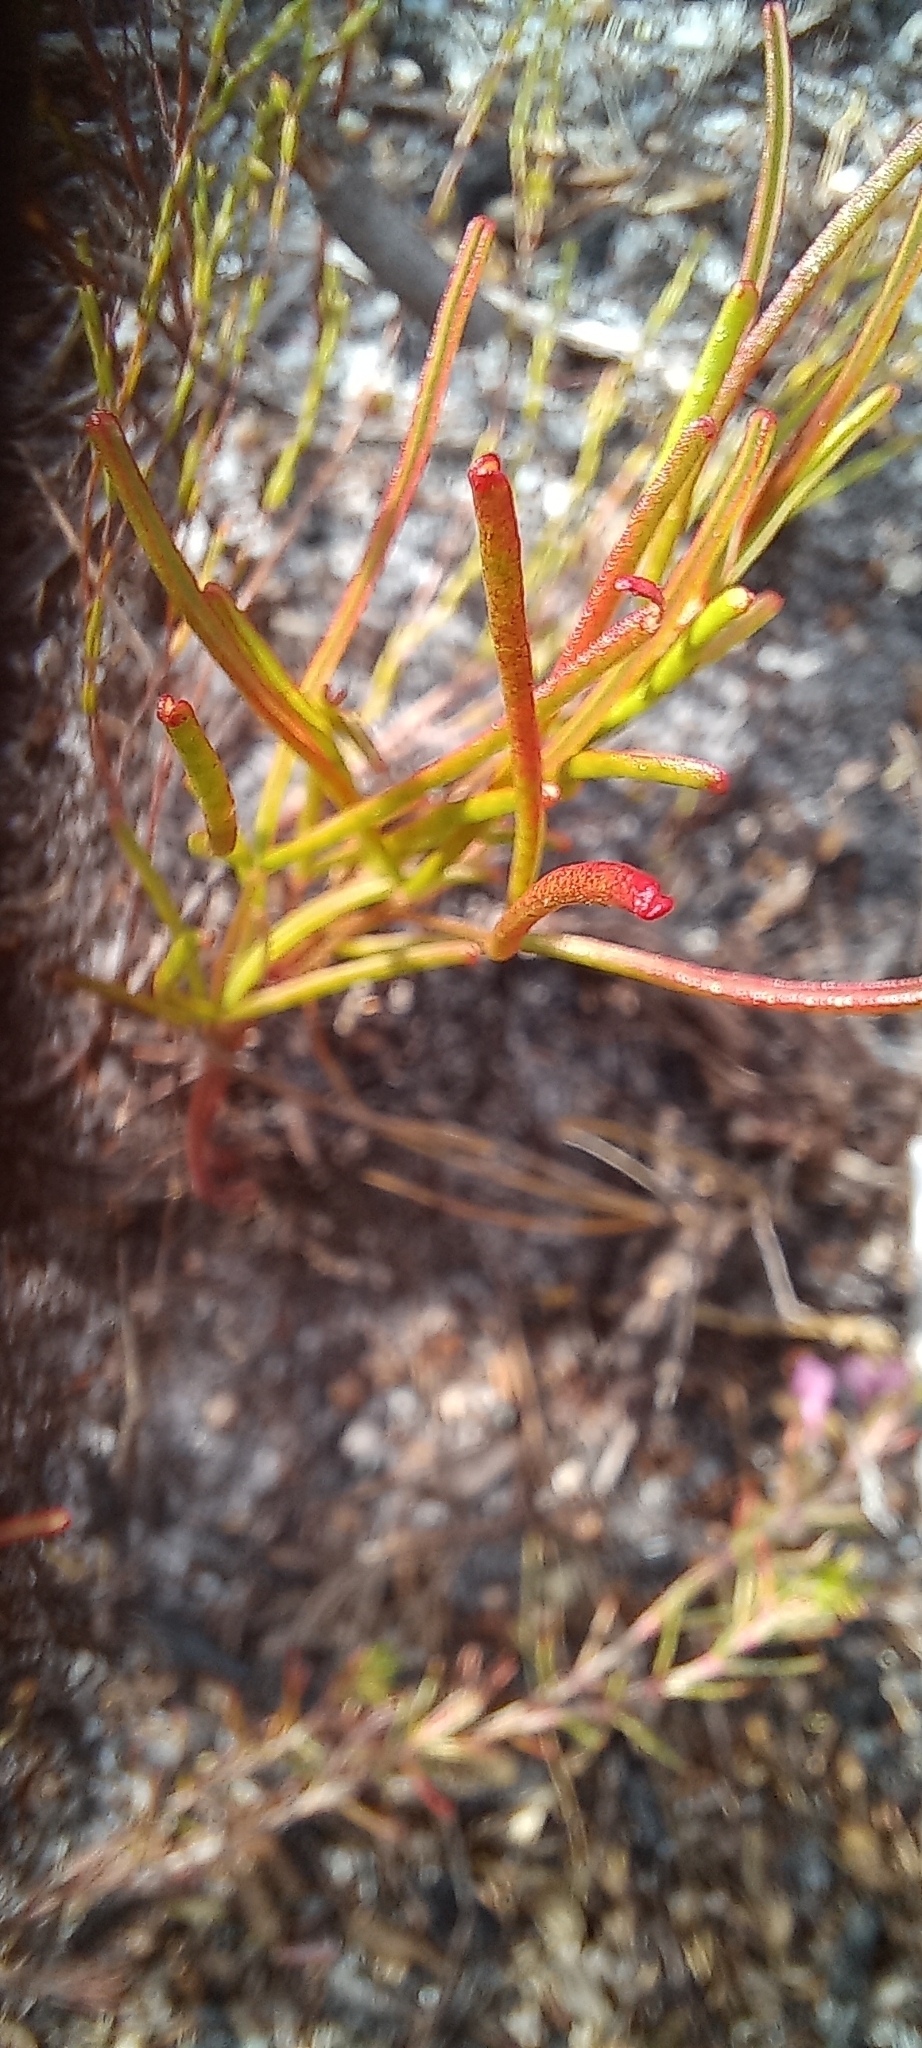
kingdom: Plantae
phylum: Tracheophyta
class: Magnoliopsida
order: Oxalidales
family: Oxalidaceae
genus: Oxalis
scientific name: Oxalis polyphylla
